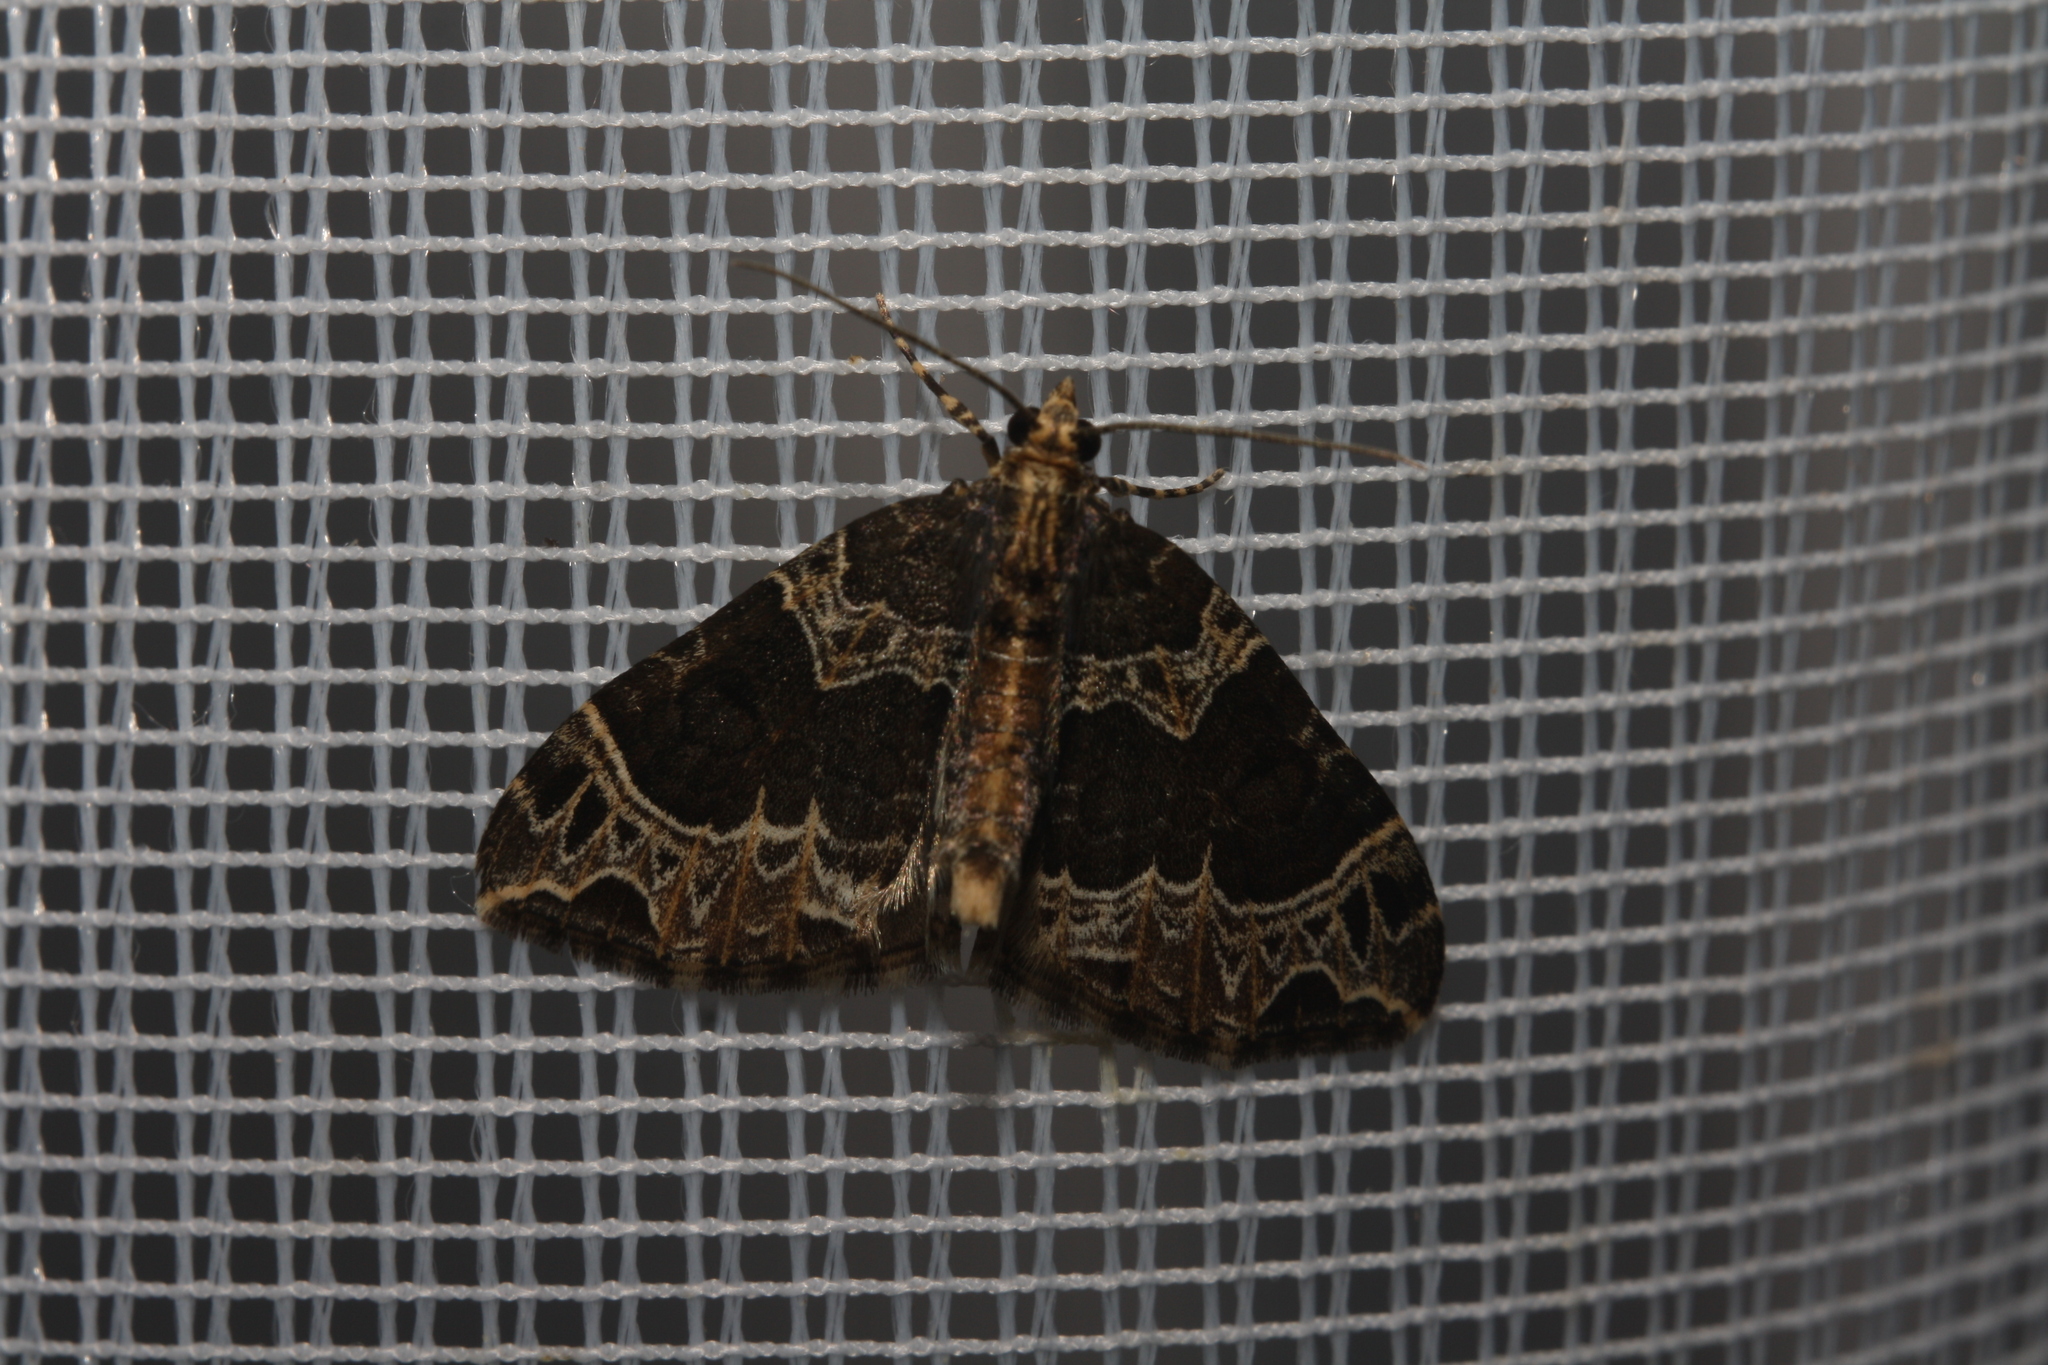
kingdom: Animalia
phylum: Arthropoda
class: Insecta
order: Lepidoptera
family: Geometridae
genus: Ecliptopera
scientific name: Ecliptopera silaceata
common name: Small phoenix
